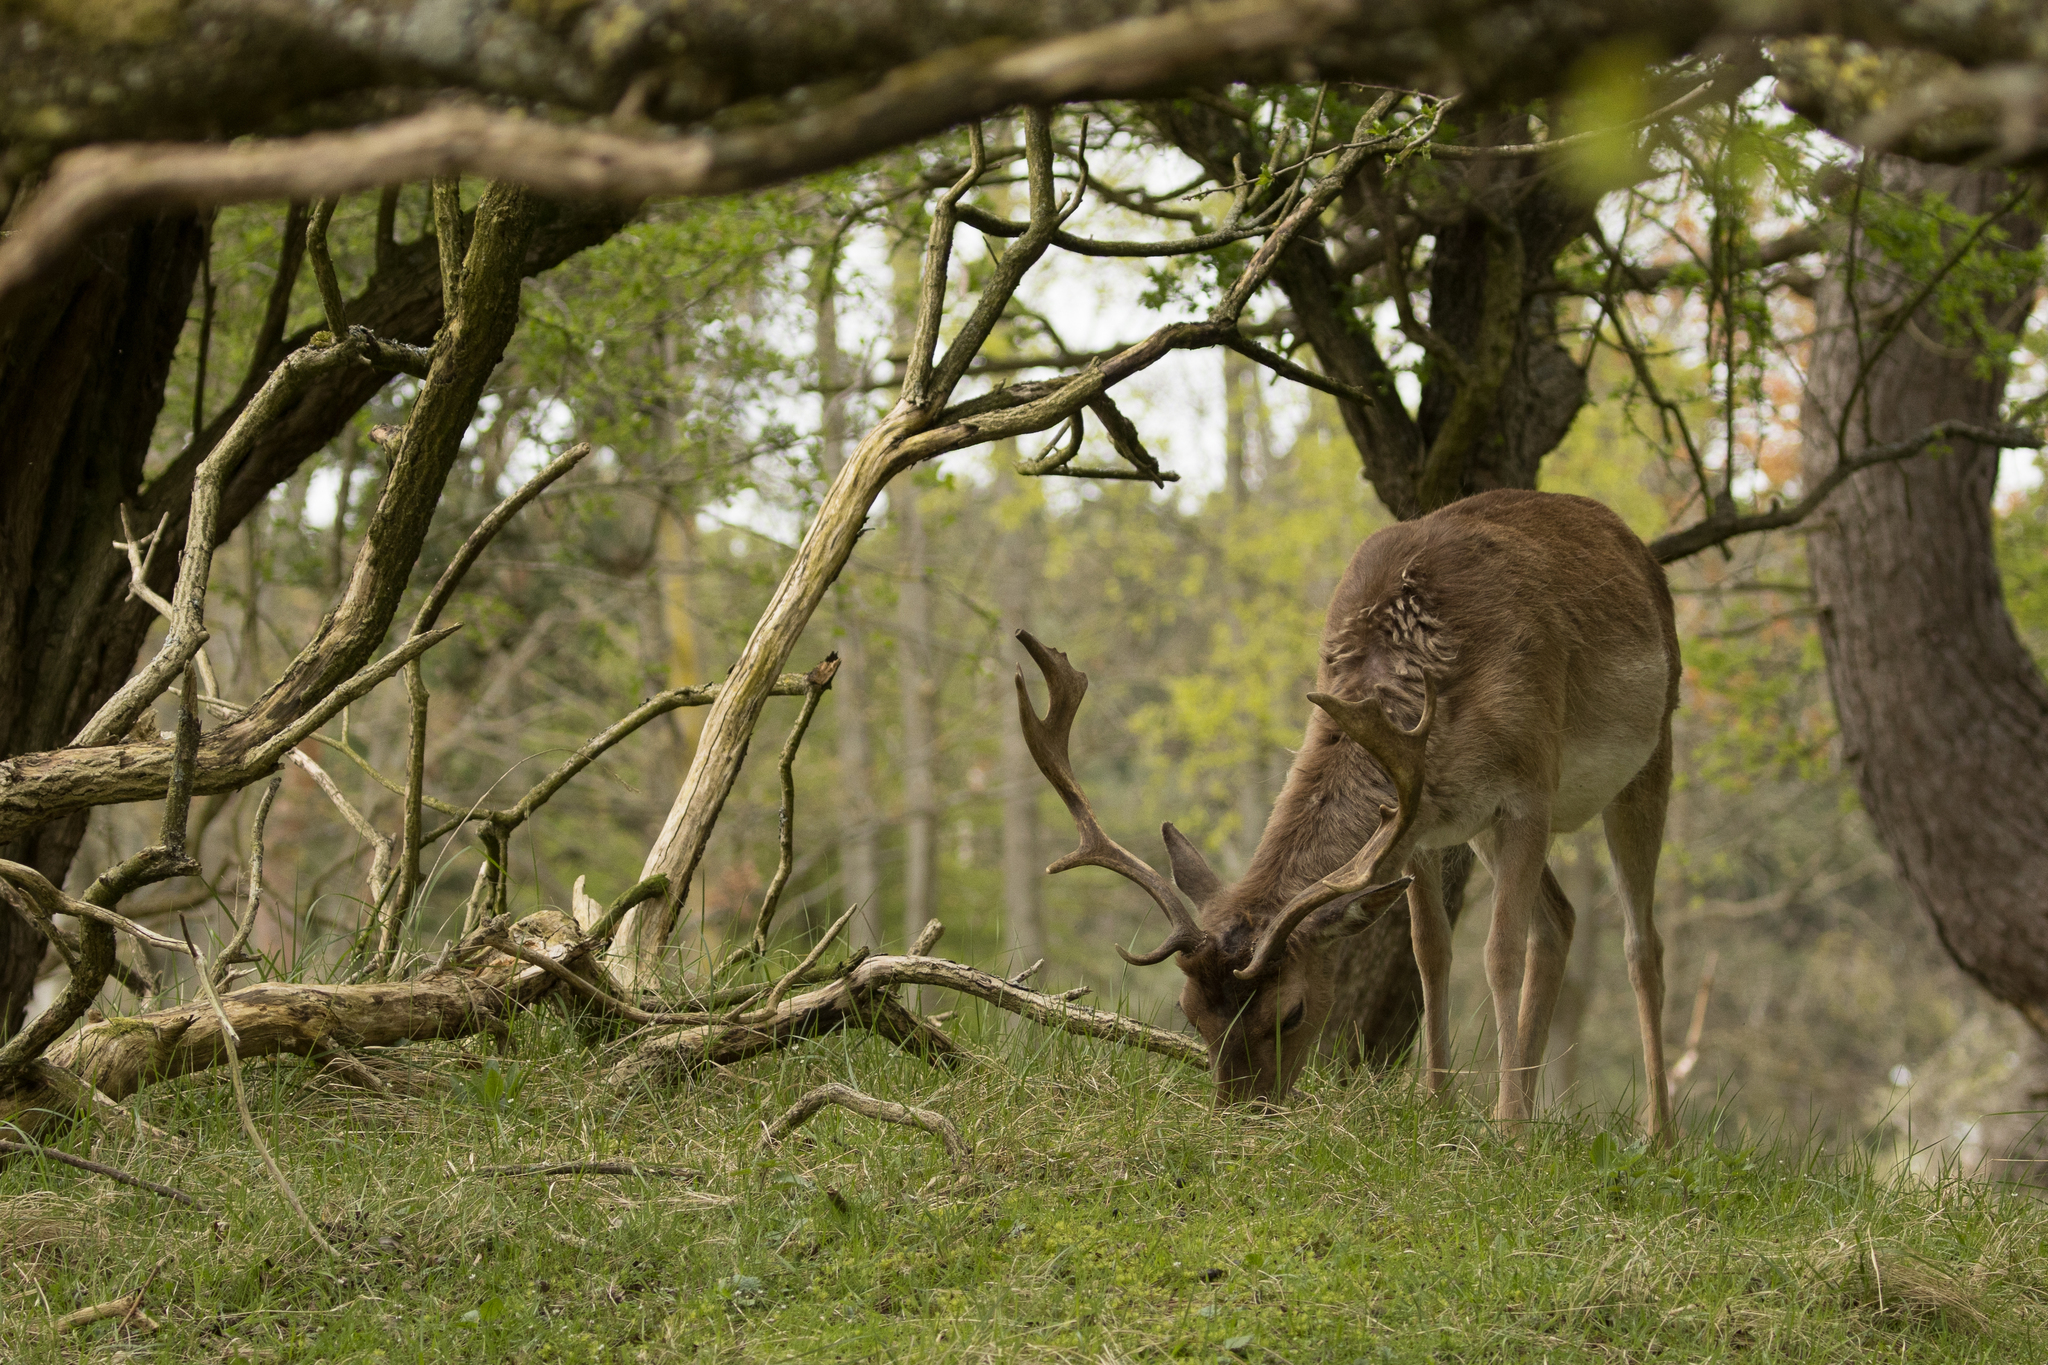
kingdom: Animalia
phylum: Chordata
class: Mammalia
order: Artiodactyla
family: Cervidae
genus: Dama
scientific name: Dama dama
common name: Fallow deer
